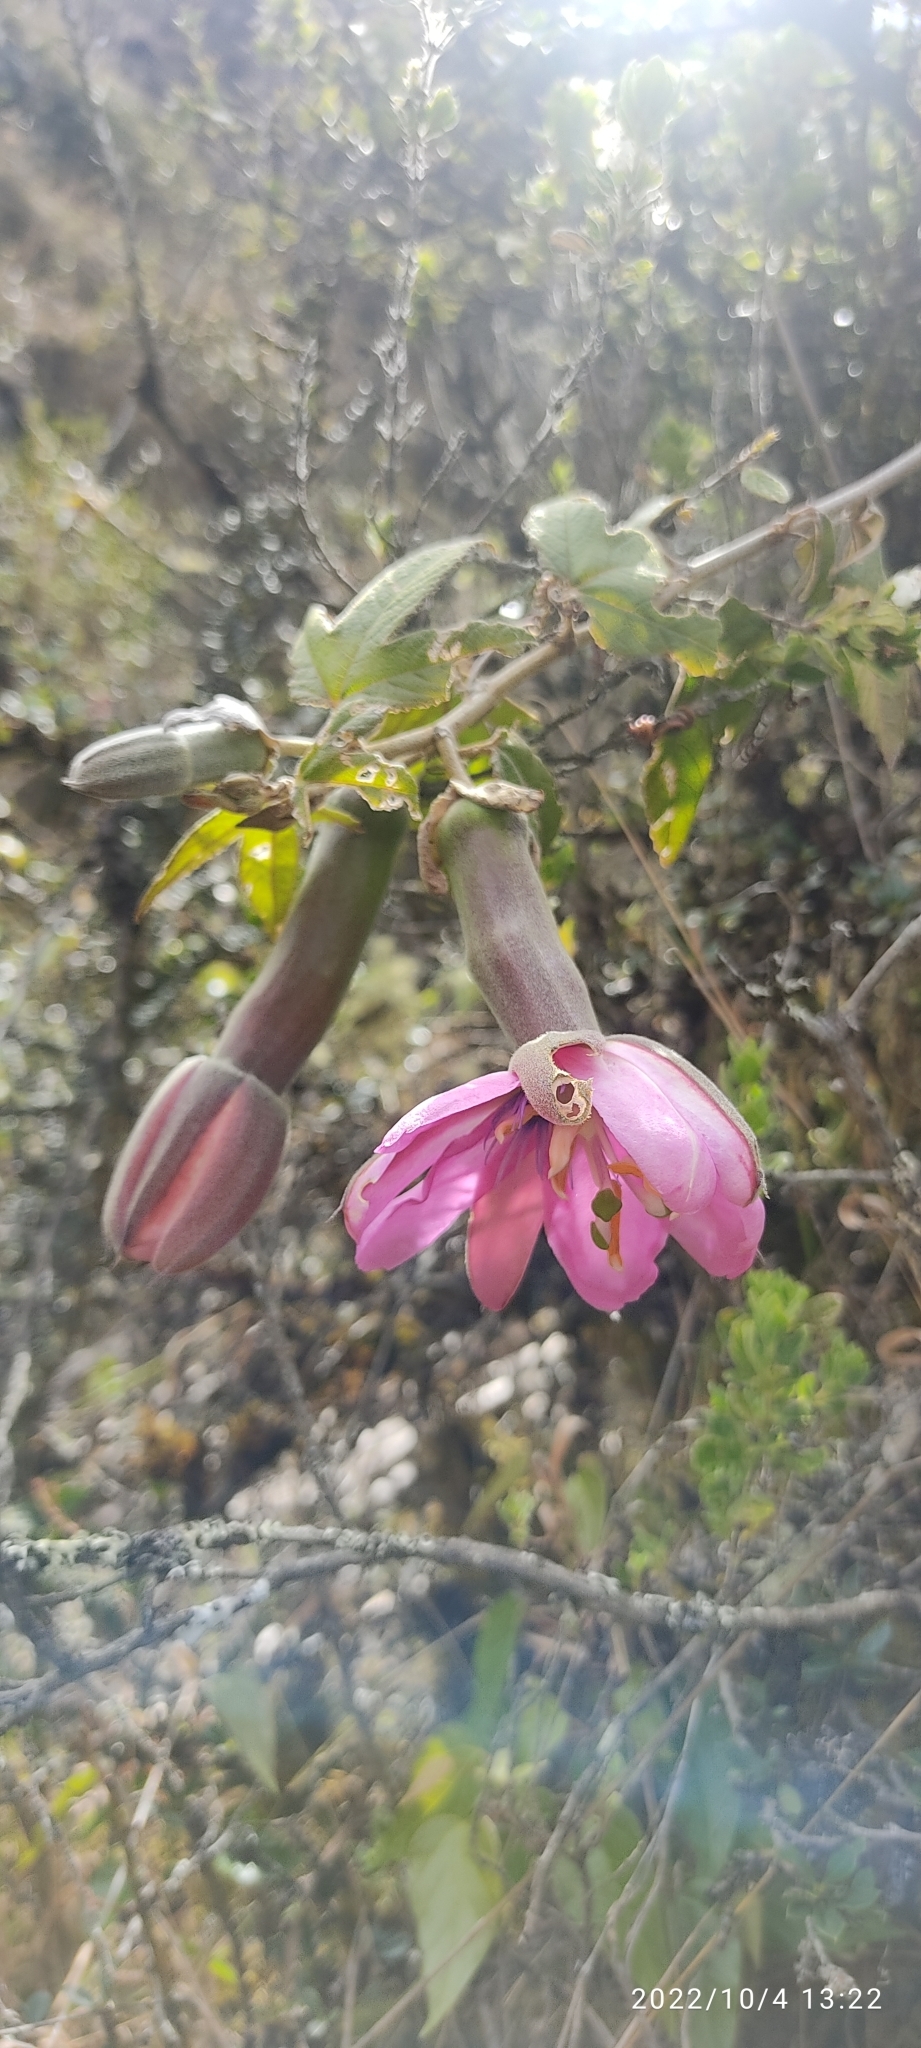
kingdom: Plantae
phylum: Tracheophyta
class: Magnoliopsida
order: Malpighiales
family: Passifloraceae
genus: Passiflora
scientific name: Passiflora pinnatistipula
